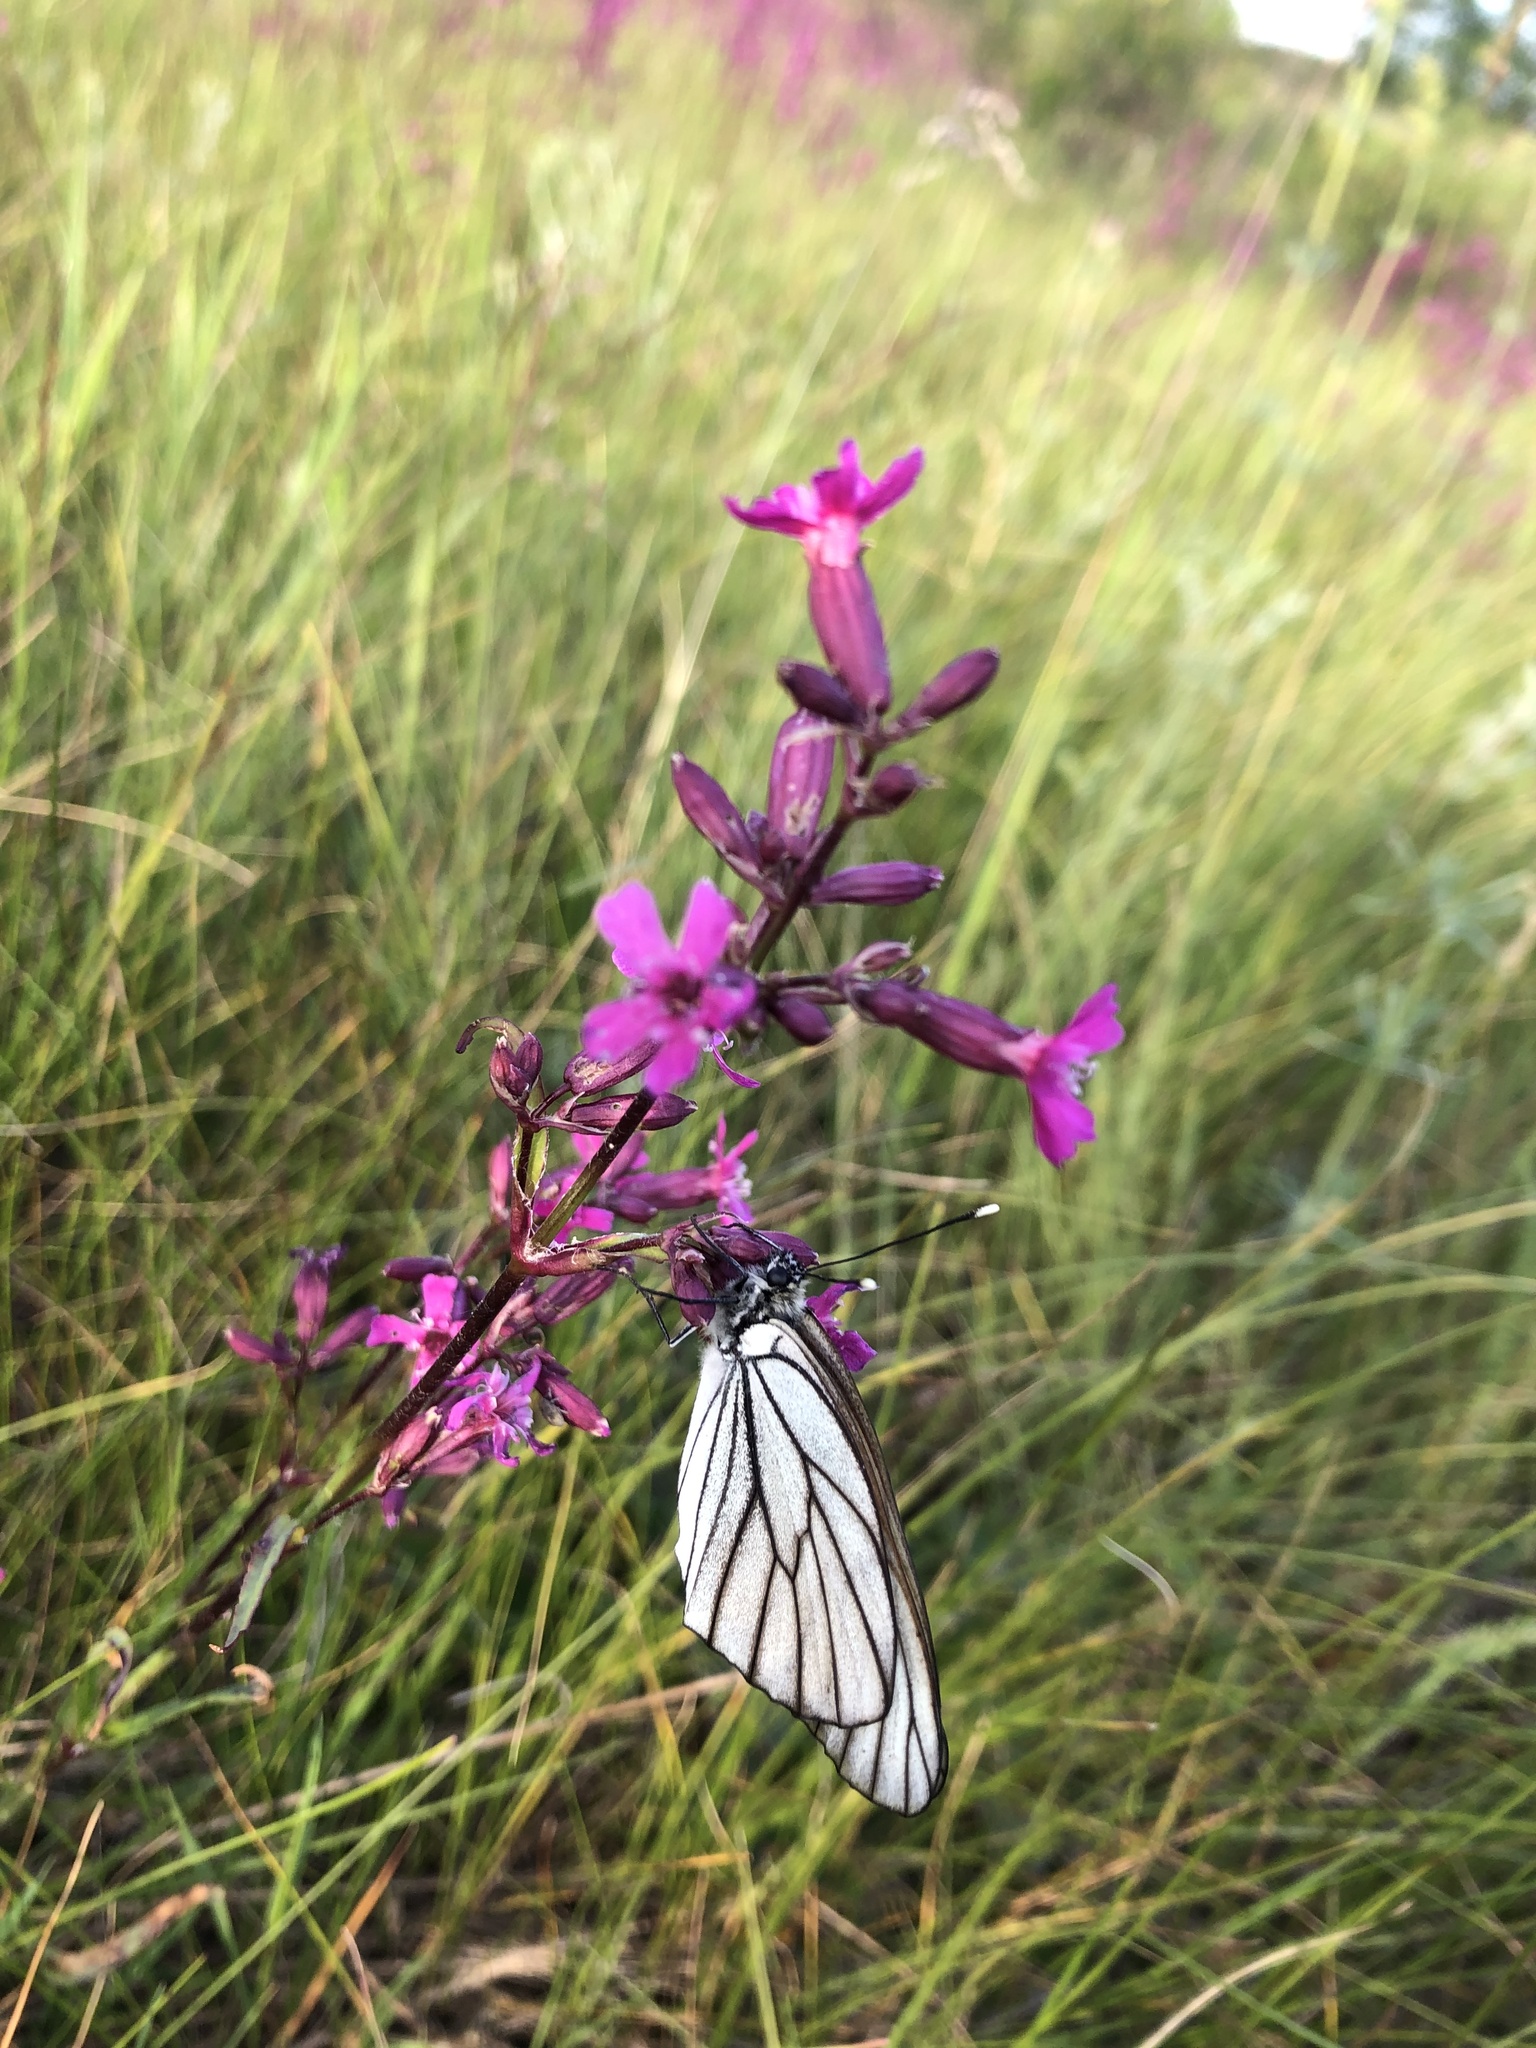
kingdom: Animalia
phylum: Arthropoda
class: Insecta
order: Lepidoptera
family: Pieridae
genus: Aporia
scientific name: Aporia crataegi
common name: Black-veined white
